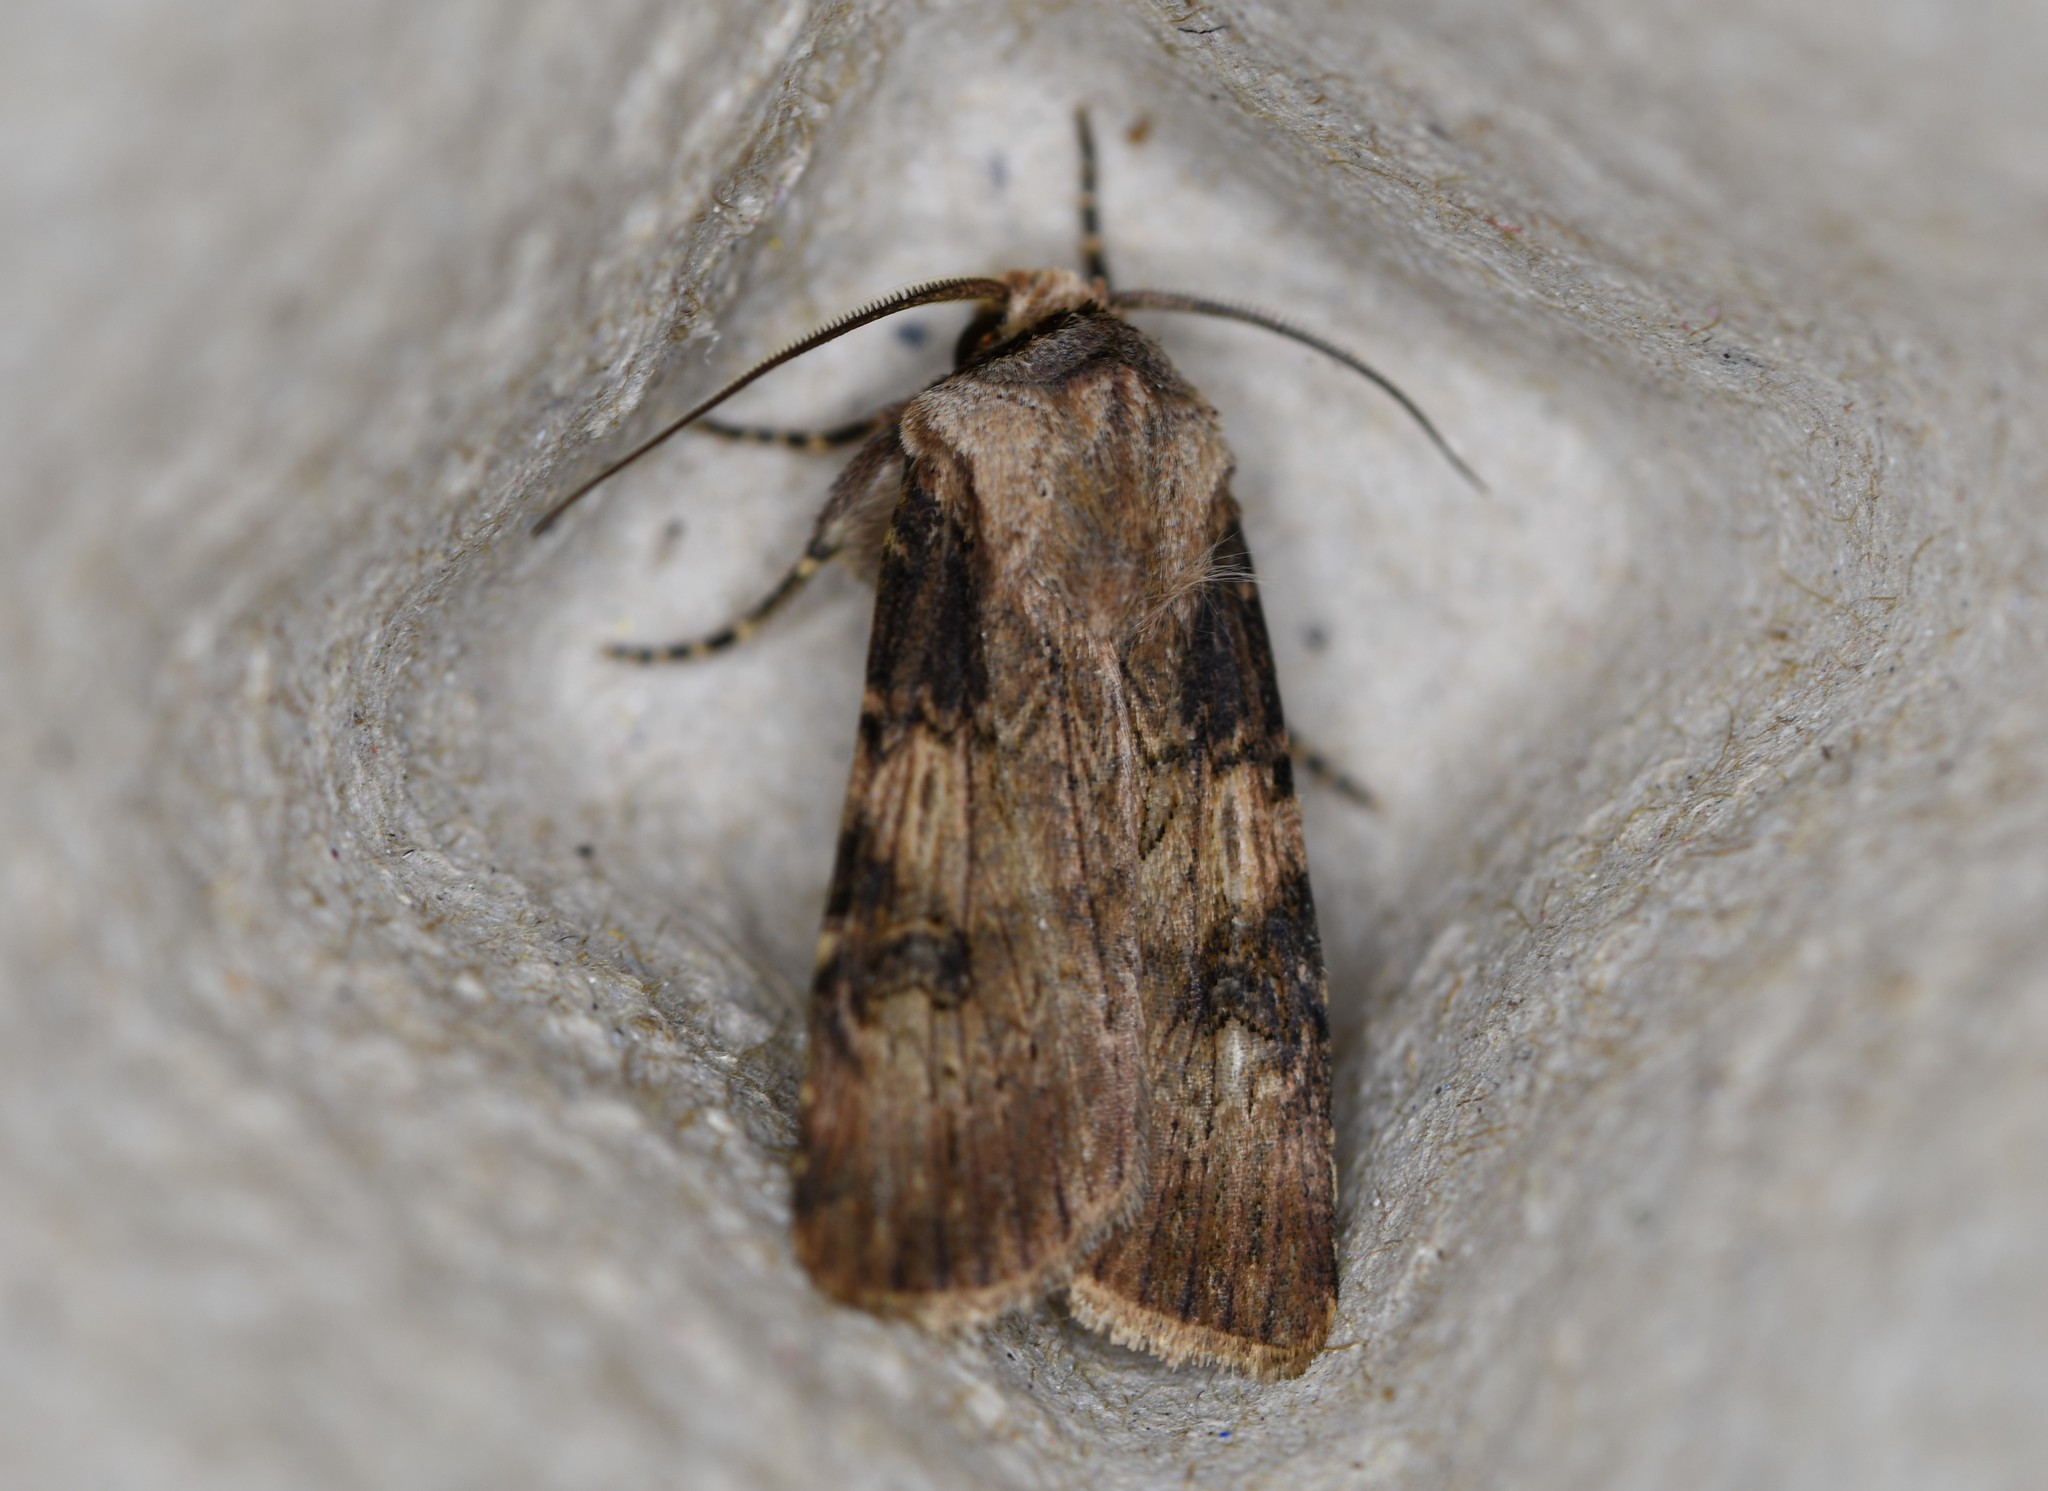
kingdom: Animalia
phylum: Arthropoda
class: Insecta
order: Lepidoptera
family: Noctuidae
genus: Agrotis
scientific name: Agrotis puta
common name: Shuttle-shaped dart
